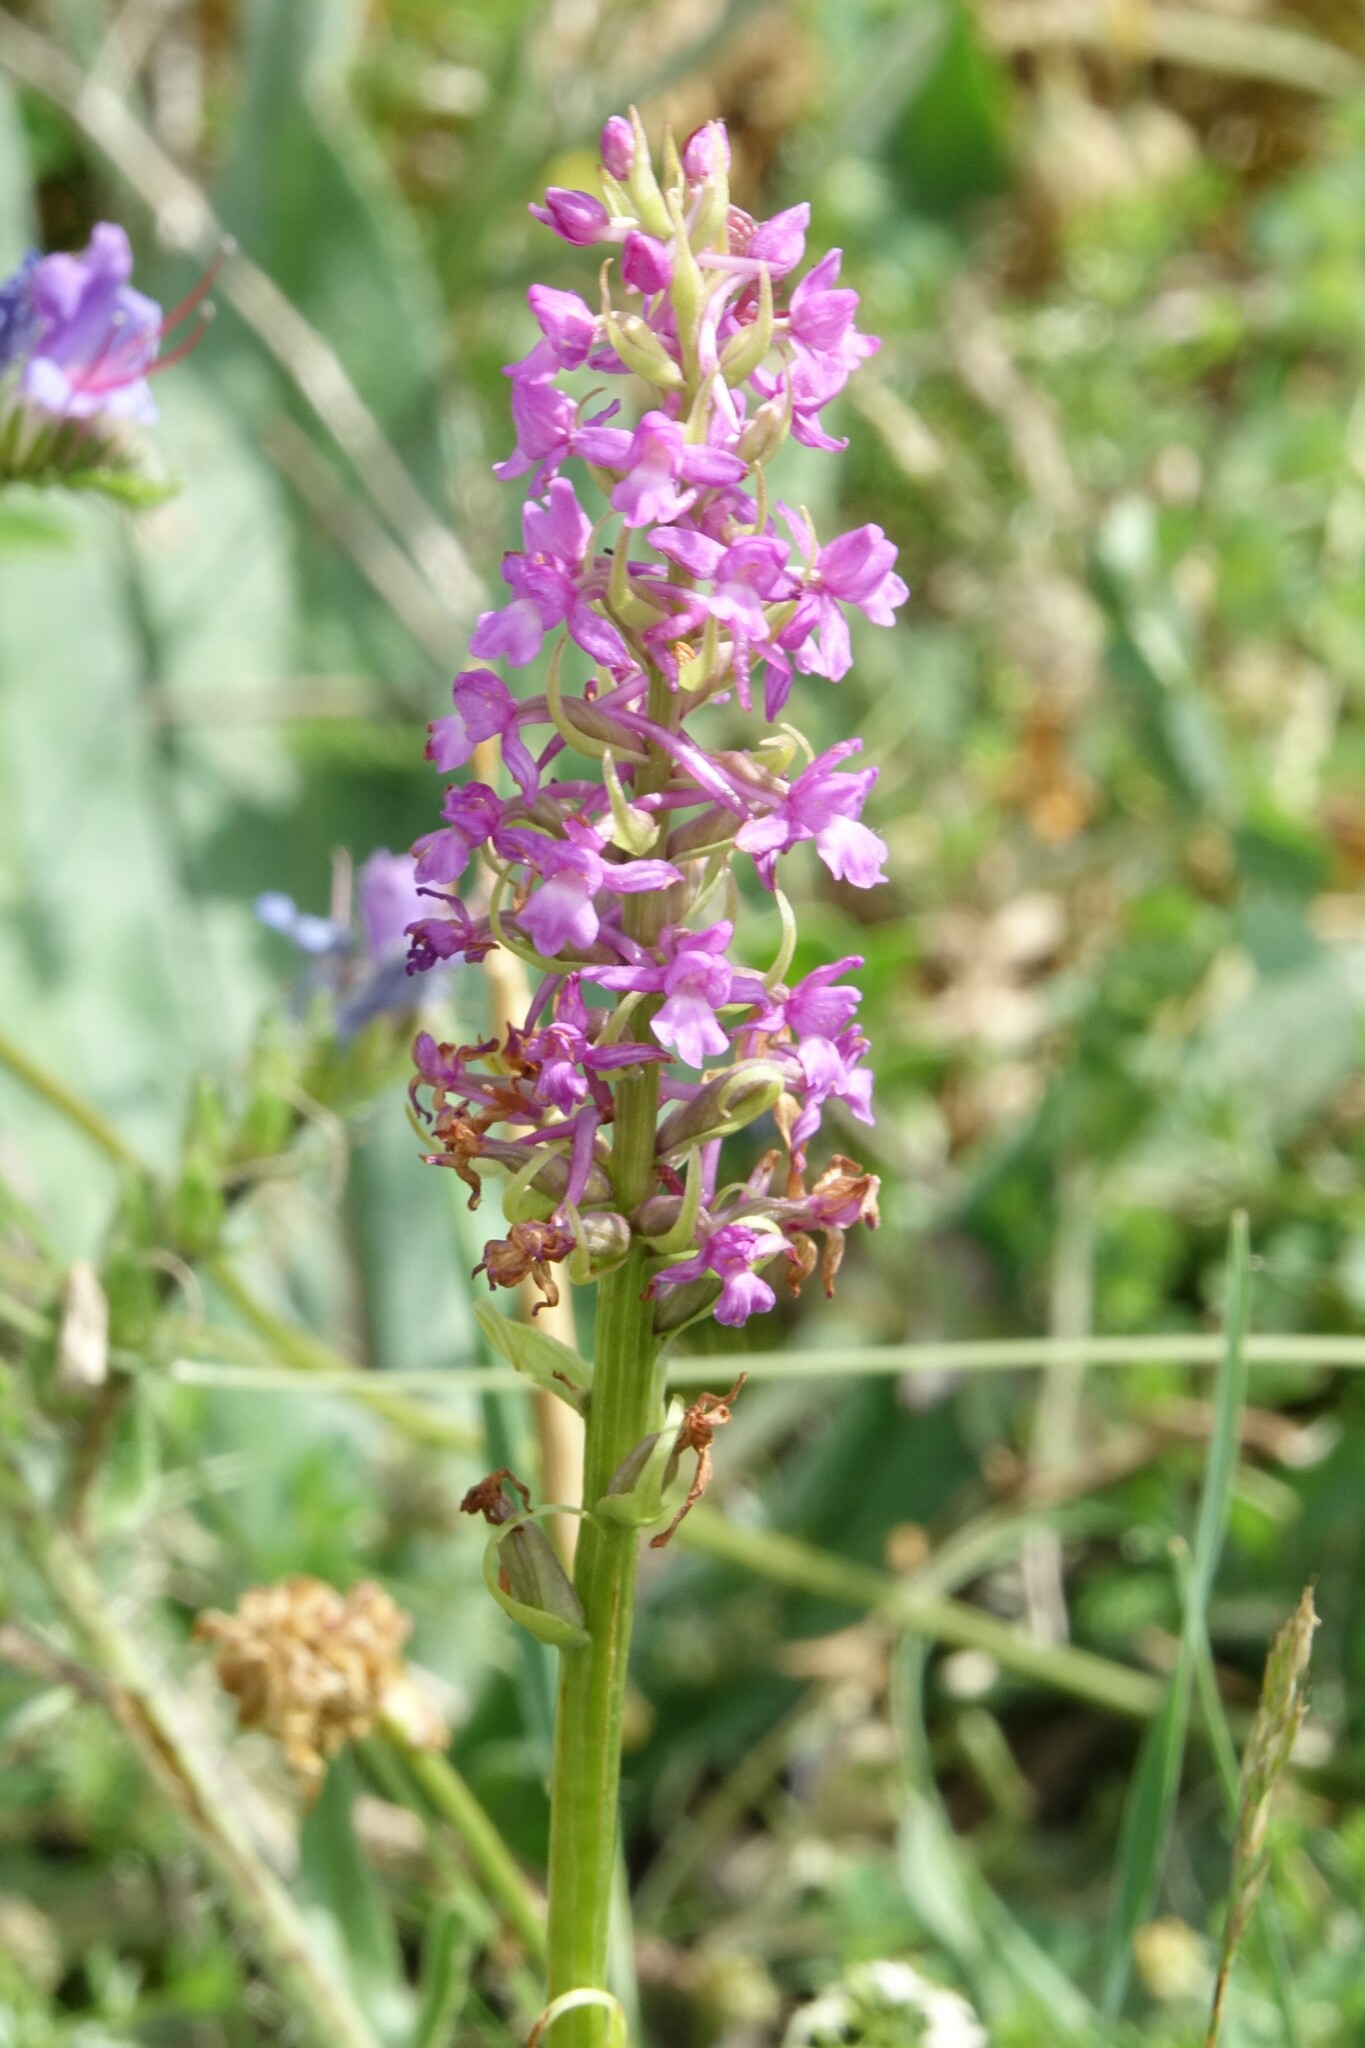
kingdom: Plantae
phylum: Tracheophyta
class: Liliopsida
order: Asparagales
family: Orchidaceae
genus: Gymnadenia
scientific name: Gymnadenia conopsea
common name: Fragrant orchid
